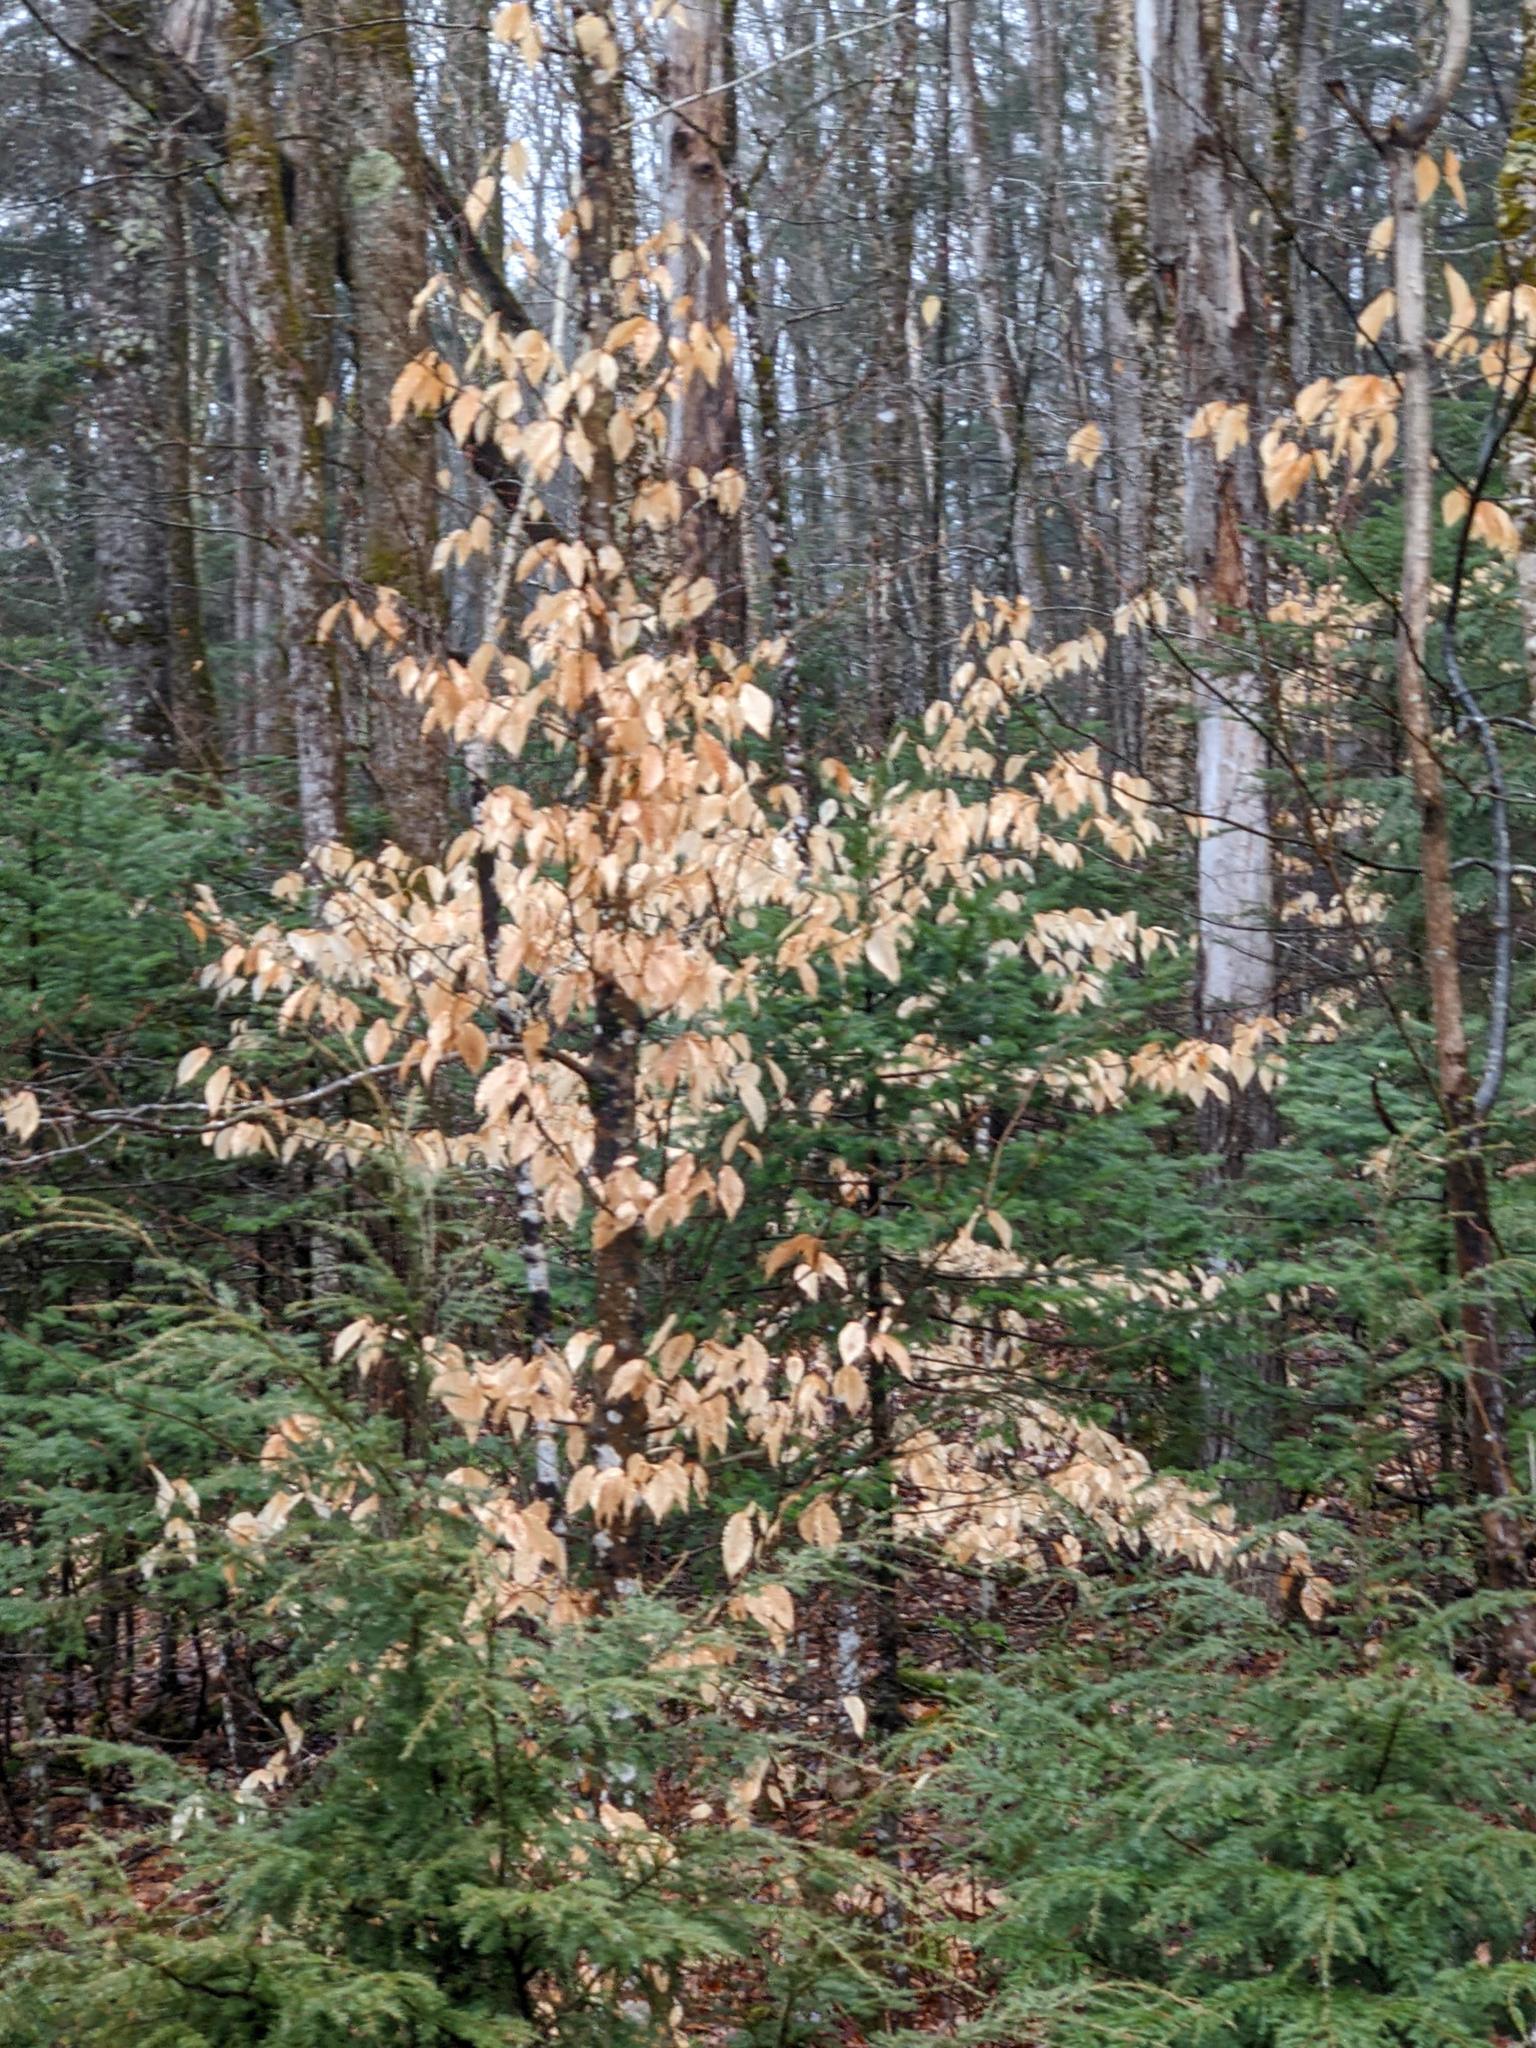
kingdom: Plantae
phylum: Tracheophyta
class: Magnoliopsida
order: Fagales
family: Fagaceae
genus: Fagus
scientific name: Fagus grandifolia
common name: American beech
